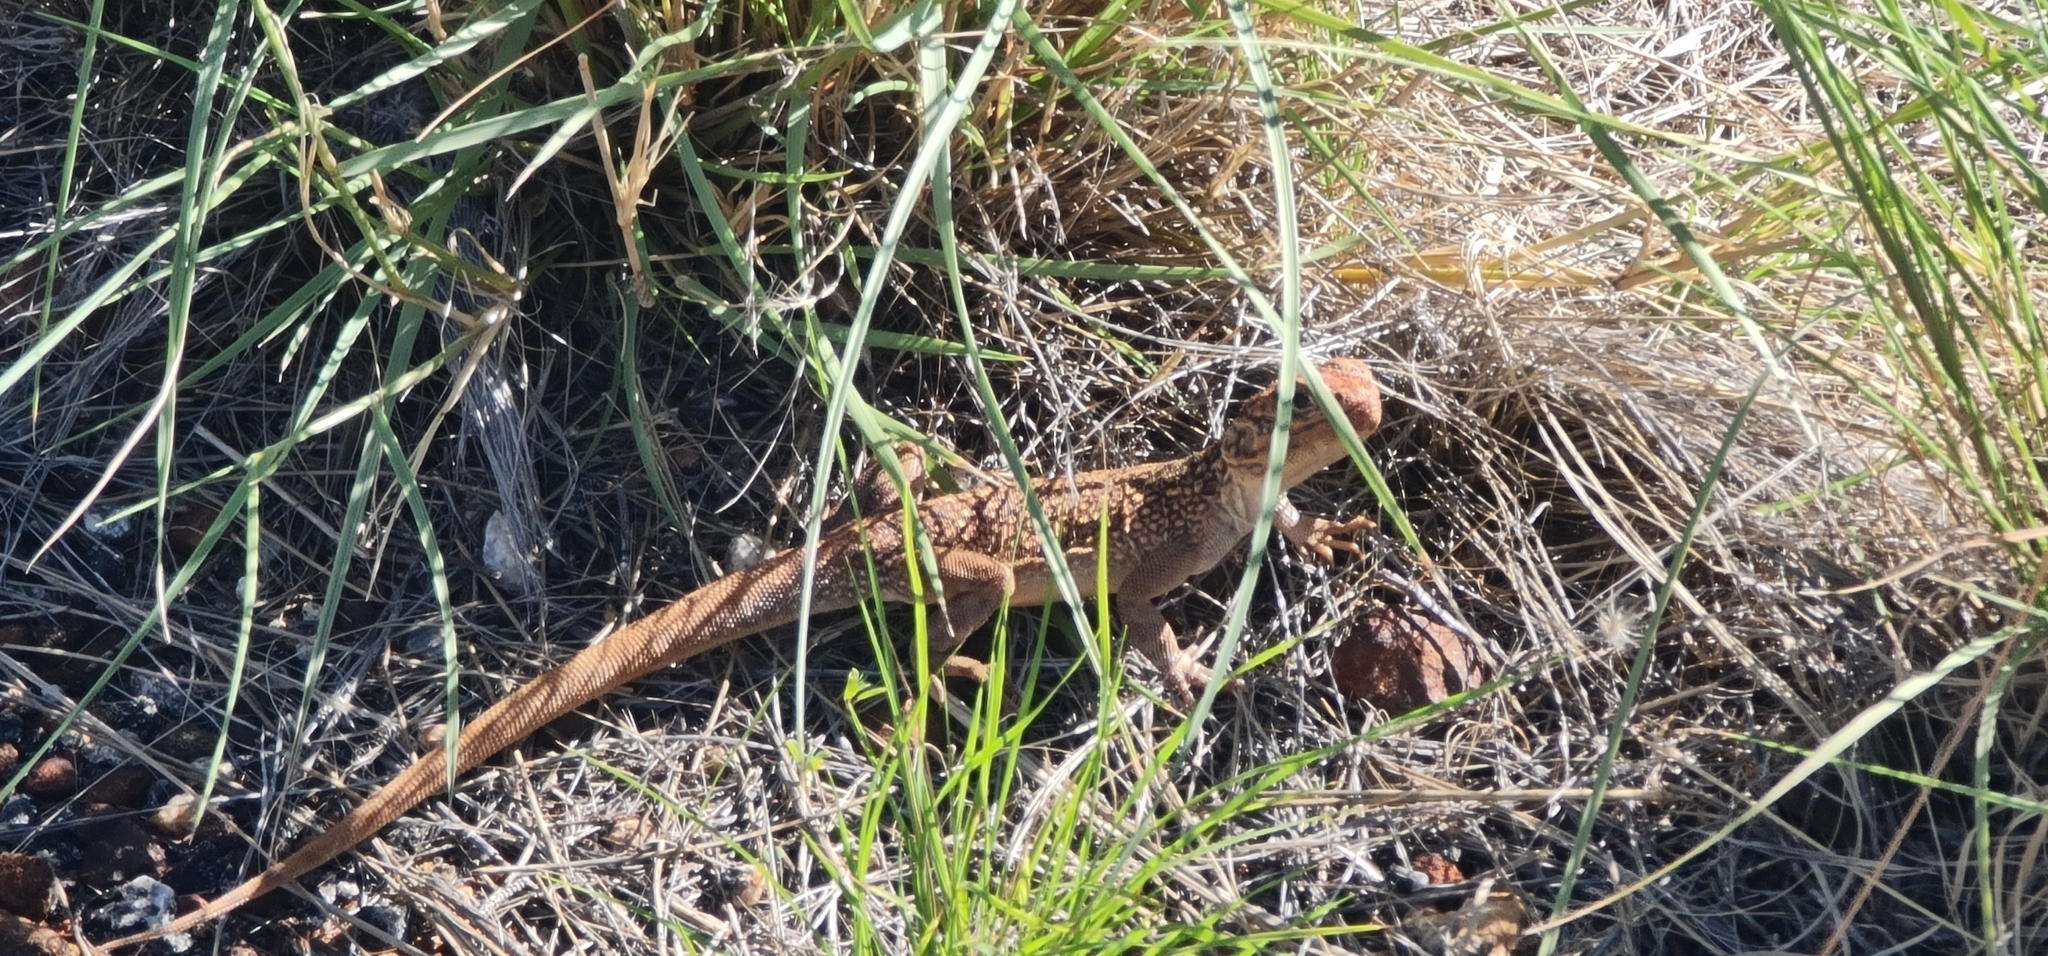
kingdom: Animalia
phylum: Chordata
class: Squamata
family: Agamidae
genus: Ctenophorus
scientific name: Ctenophorus nuchalis
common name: Central netted dragon
